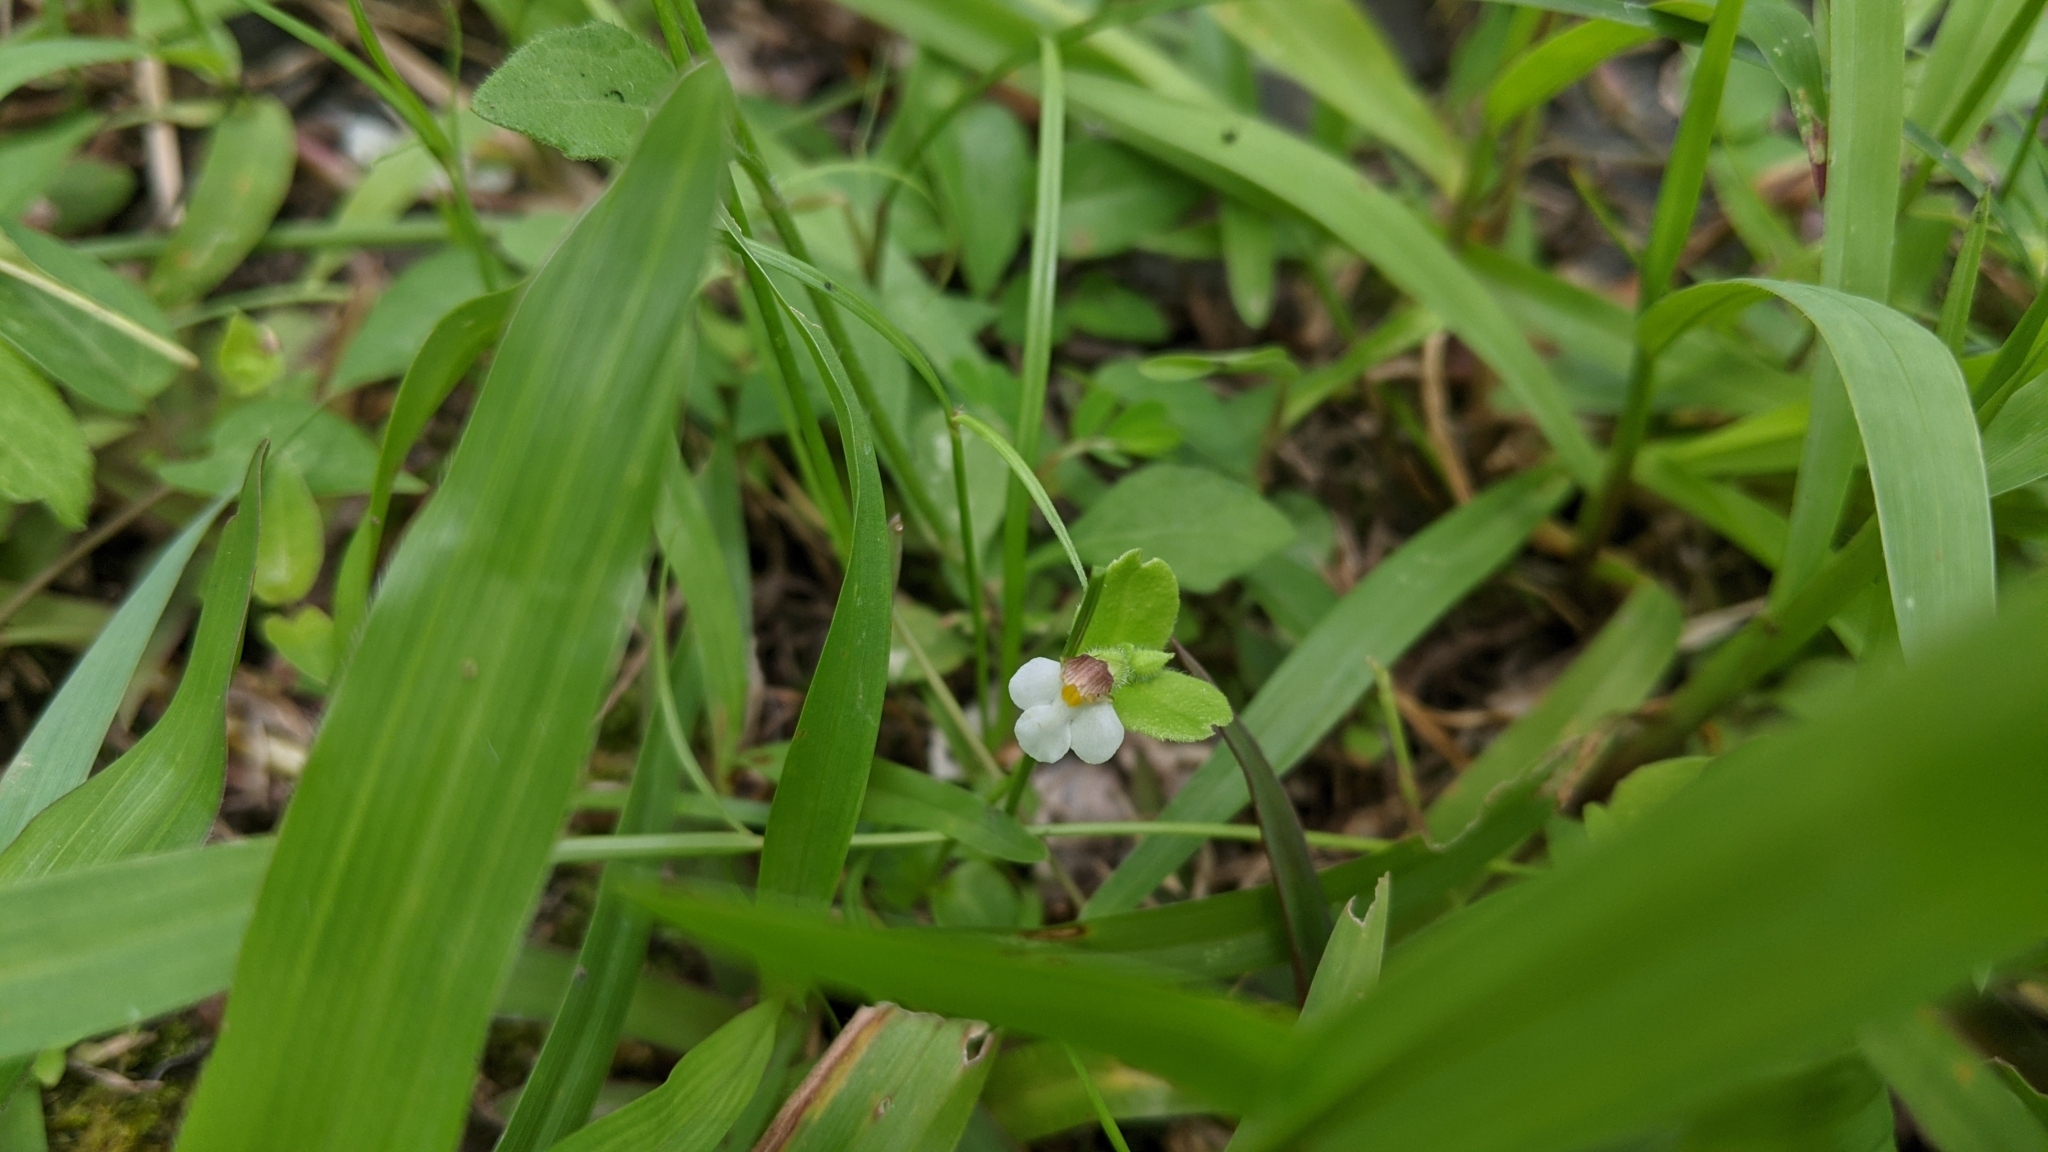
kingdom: Plantae
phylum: Tracheophyta
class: Magnoliopsida
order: Lamiales
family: Linderniaceae
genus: Yamazakia
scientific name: Yamazakia pusilla
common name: Tiny slitwort
